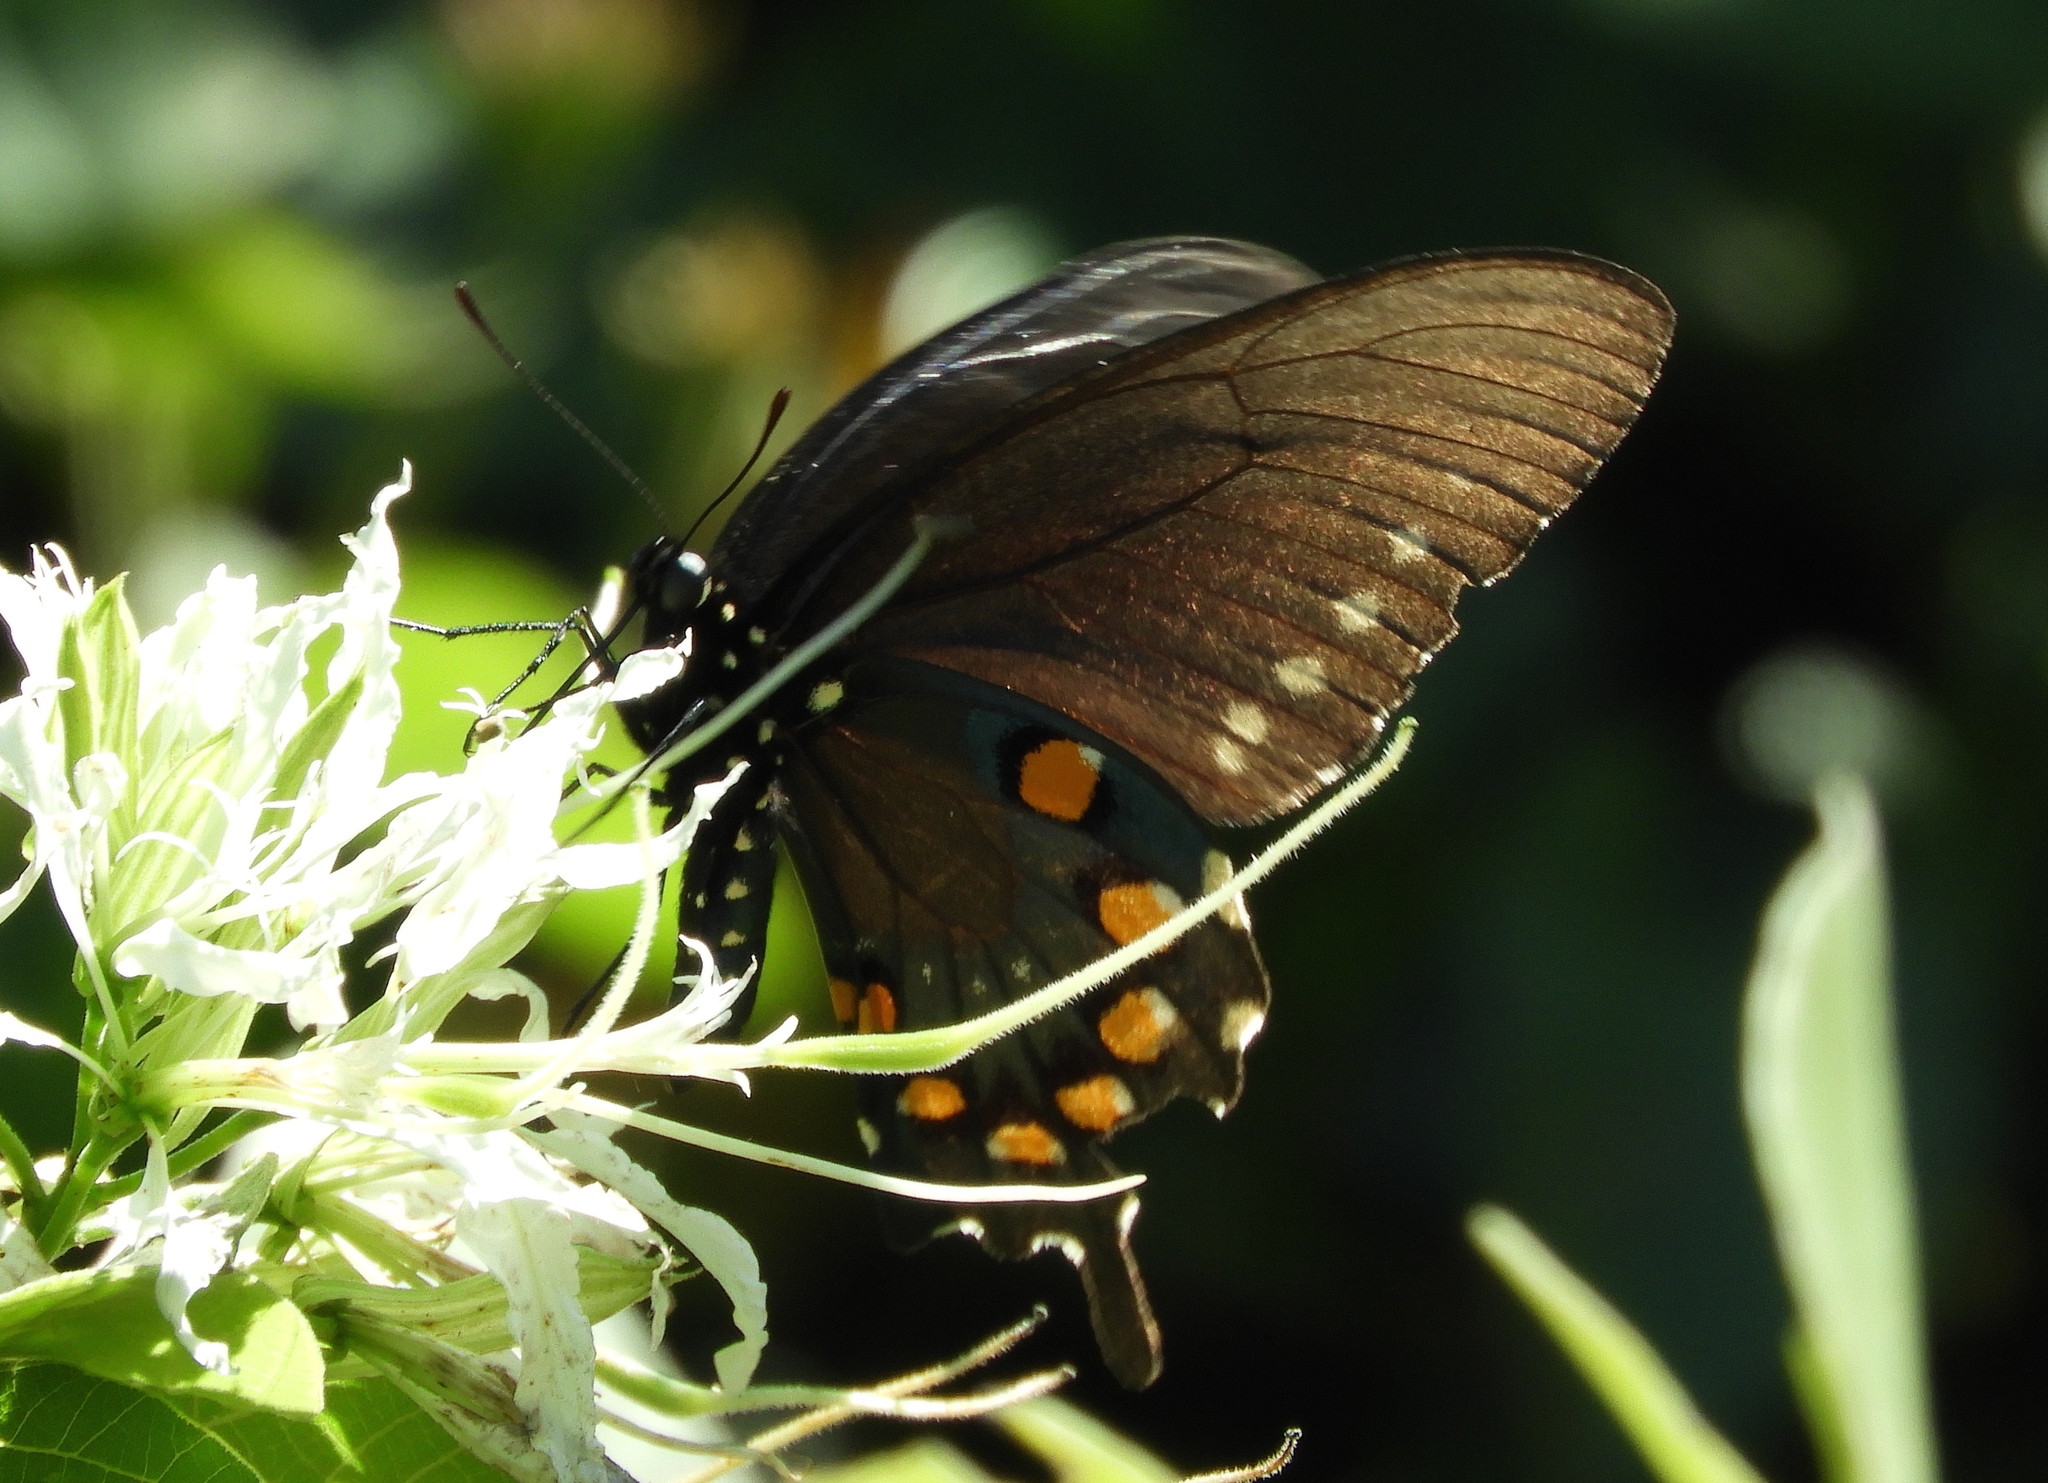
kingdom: Animalia
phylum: Arthropoda
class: Insecta
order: Lepidoptera
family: Papilionidae
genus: Battus
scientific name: Battus philenor
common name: Pipevine swallowtail
